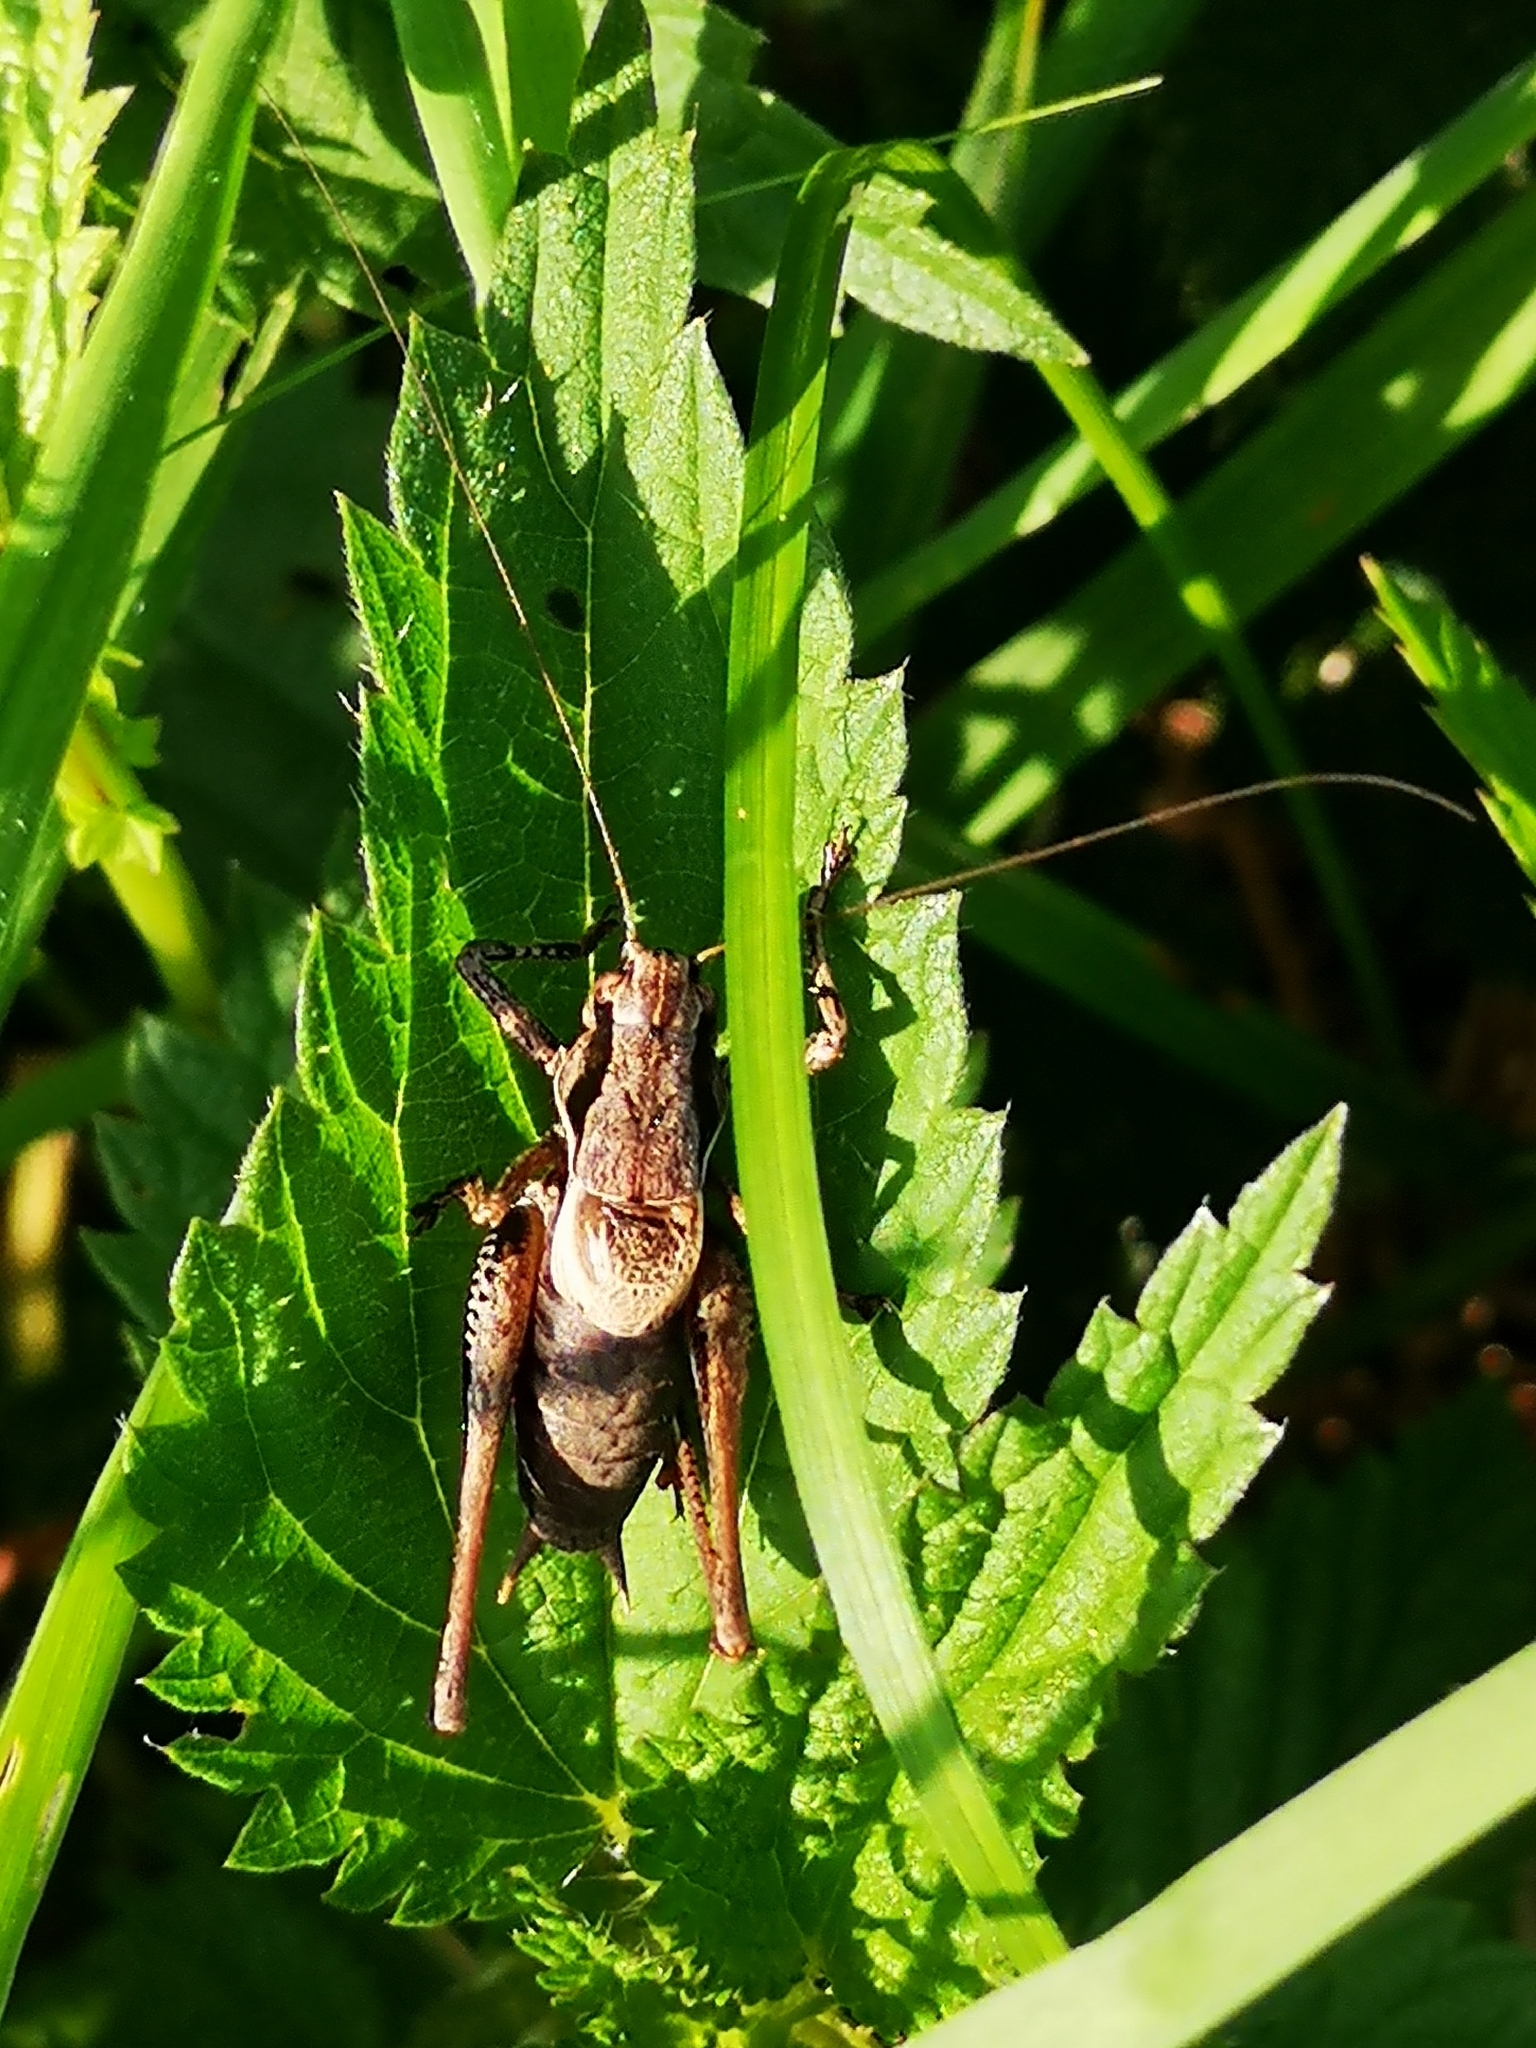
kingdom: Animalia
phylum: Arthropoda
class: Insecta
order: Orthoptera
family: Tettigoniidae
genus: Pholidoptera
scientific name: Pholidoptera griseoaptera
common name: Dark bush-cricket
